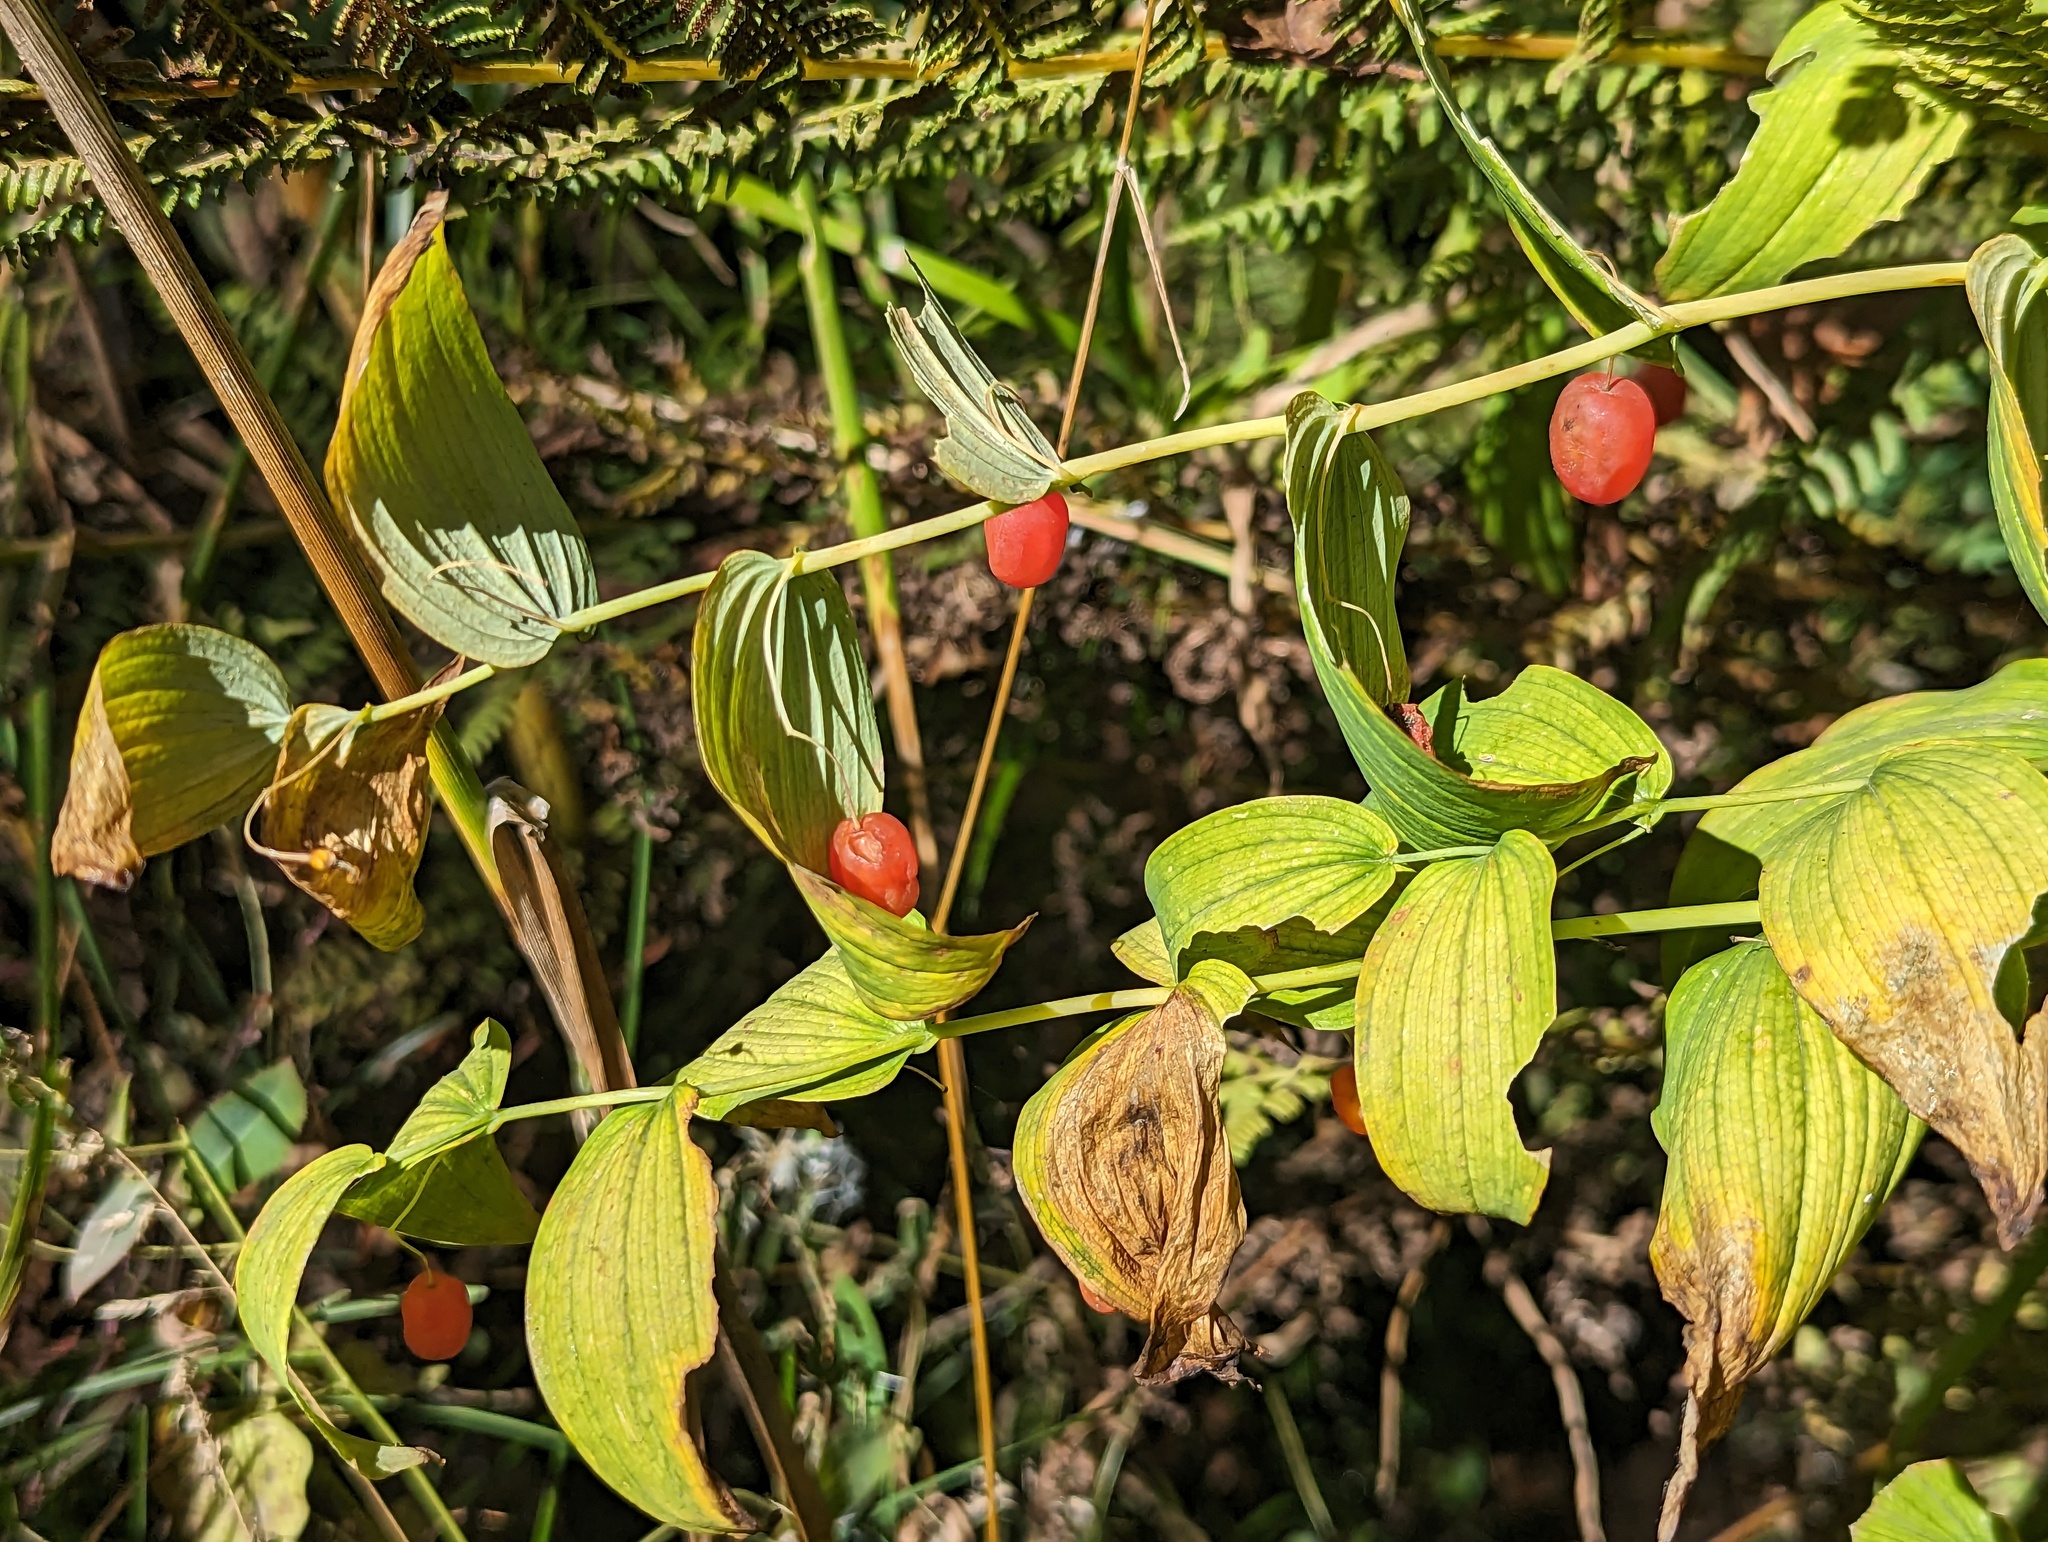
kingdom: Plantae
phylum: Tracheophyta
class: Liliopsida
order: Liliales
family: Liliaceae
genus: Streptopus
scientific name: Streptopus amplexifolius
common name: Clasp twisted stalk
